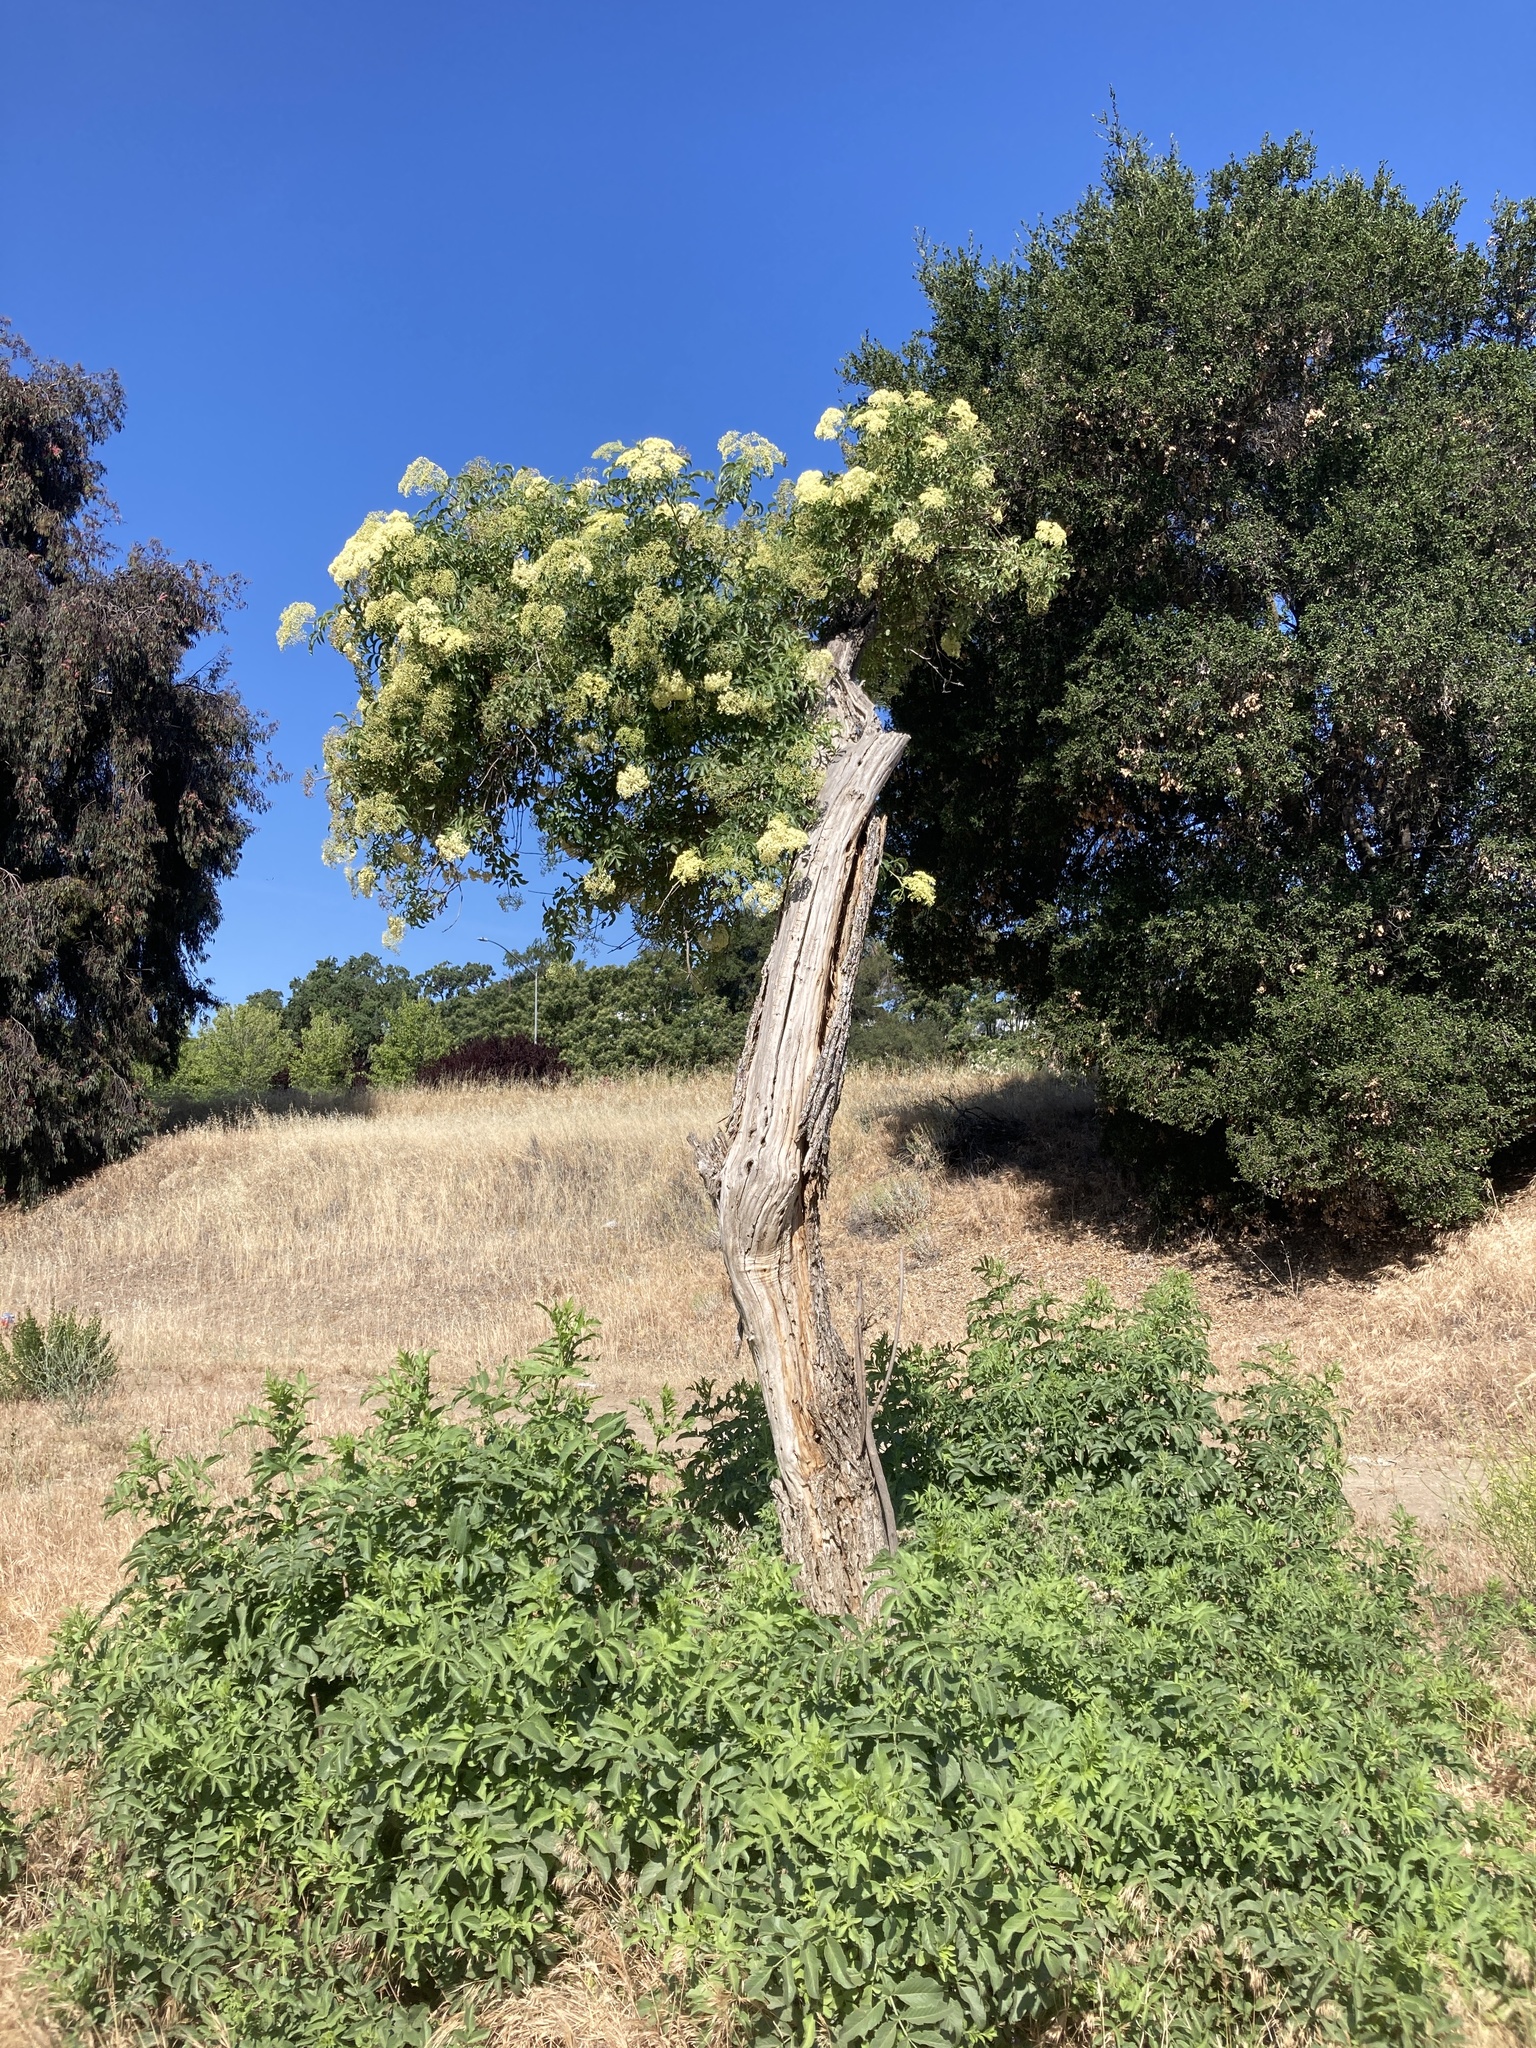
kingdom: Plantae
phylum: Tracheophyta
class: Magnoliopsida
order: Dipsacales
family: Viburnaceae
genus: Sambucus
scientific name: Sambucus cerulea
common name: Blue elder
